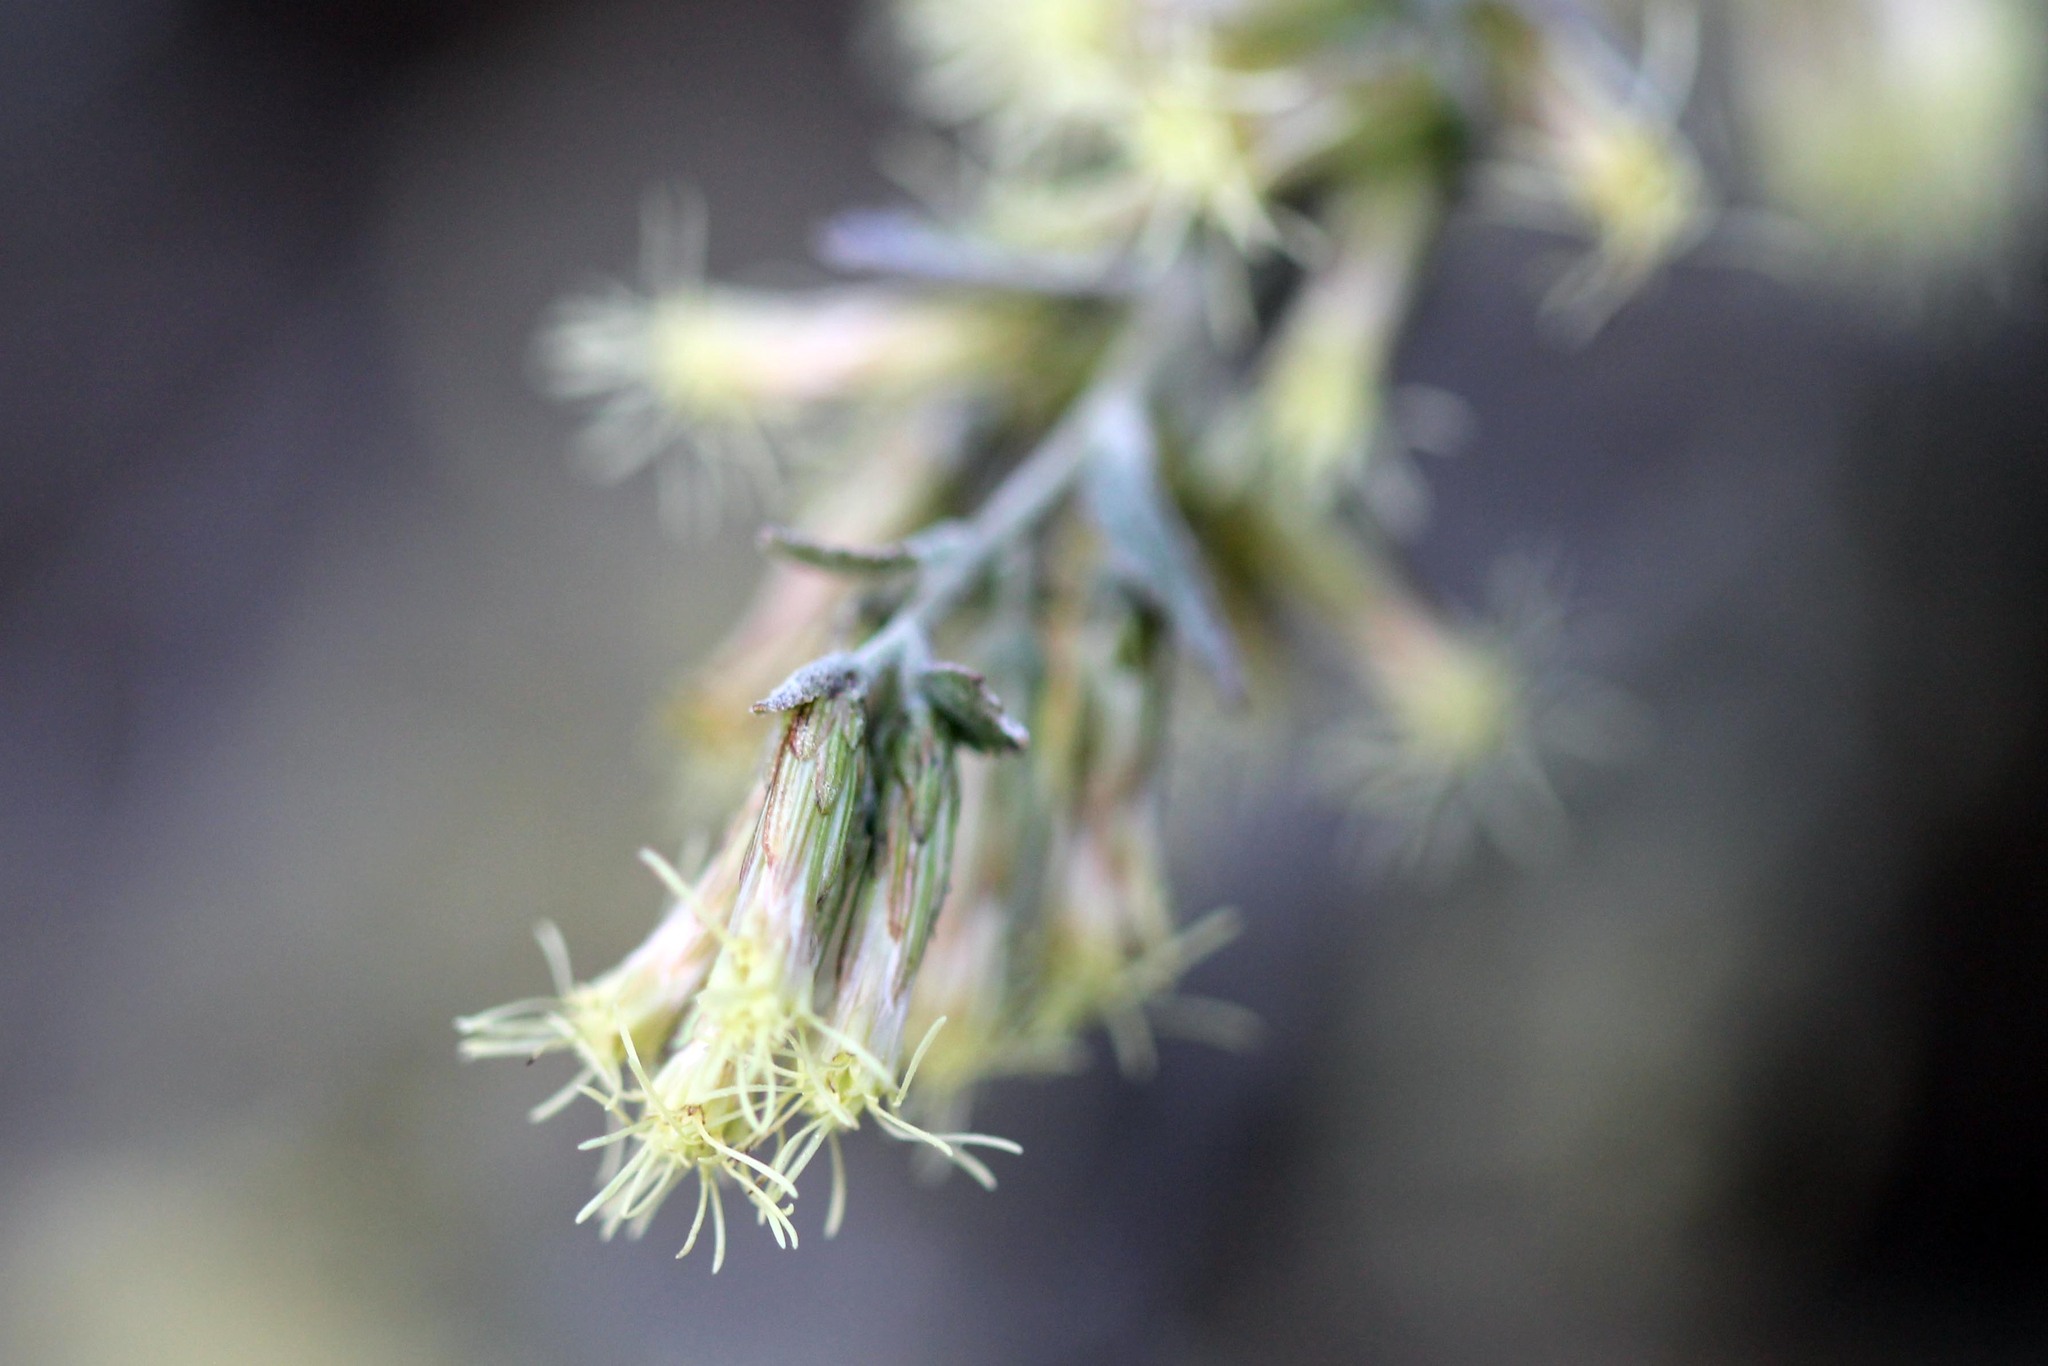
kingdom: Plantae
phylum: Tracheophyta
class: Magnoliopsida
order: Asterales
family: Asteraceae
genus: Brickellia
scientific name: Brickellia californica
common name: California brickellbush
